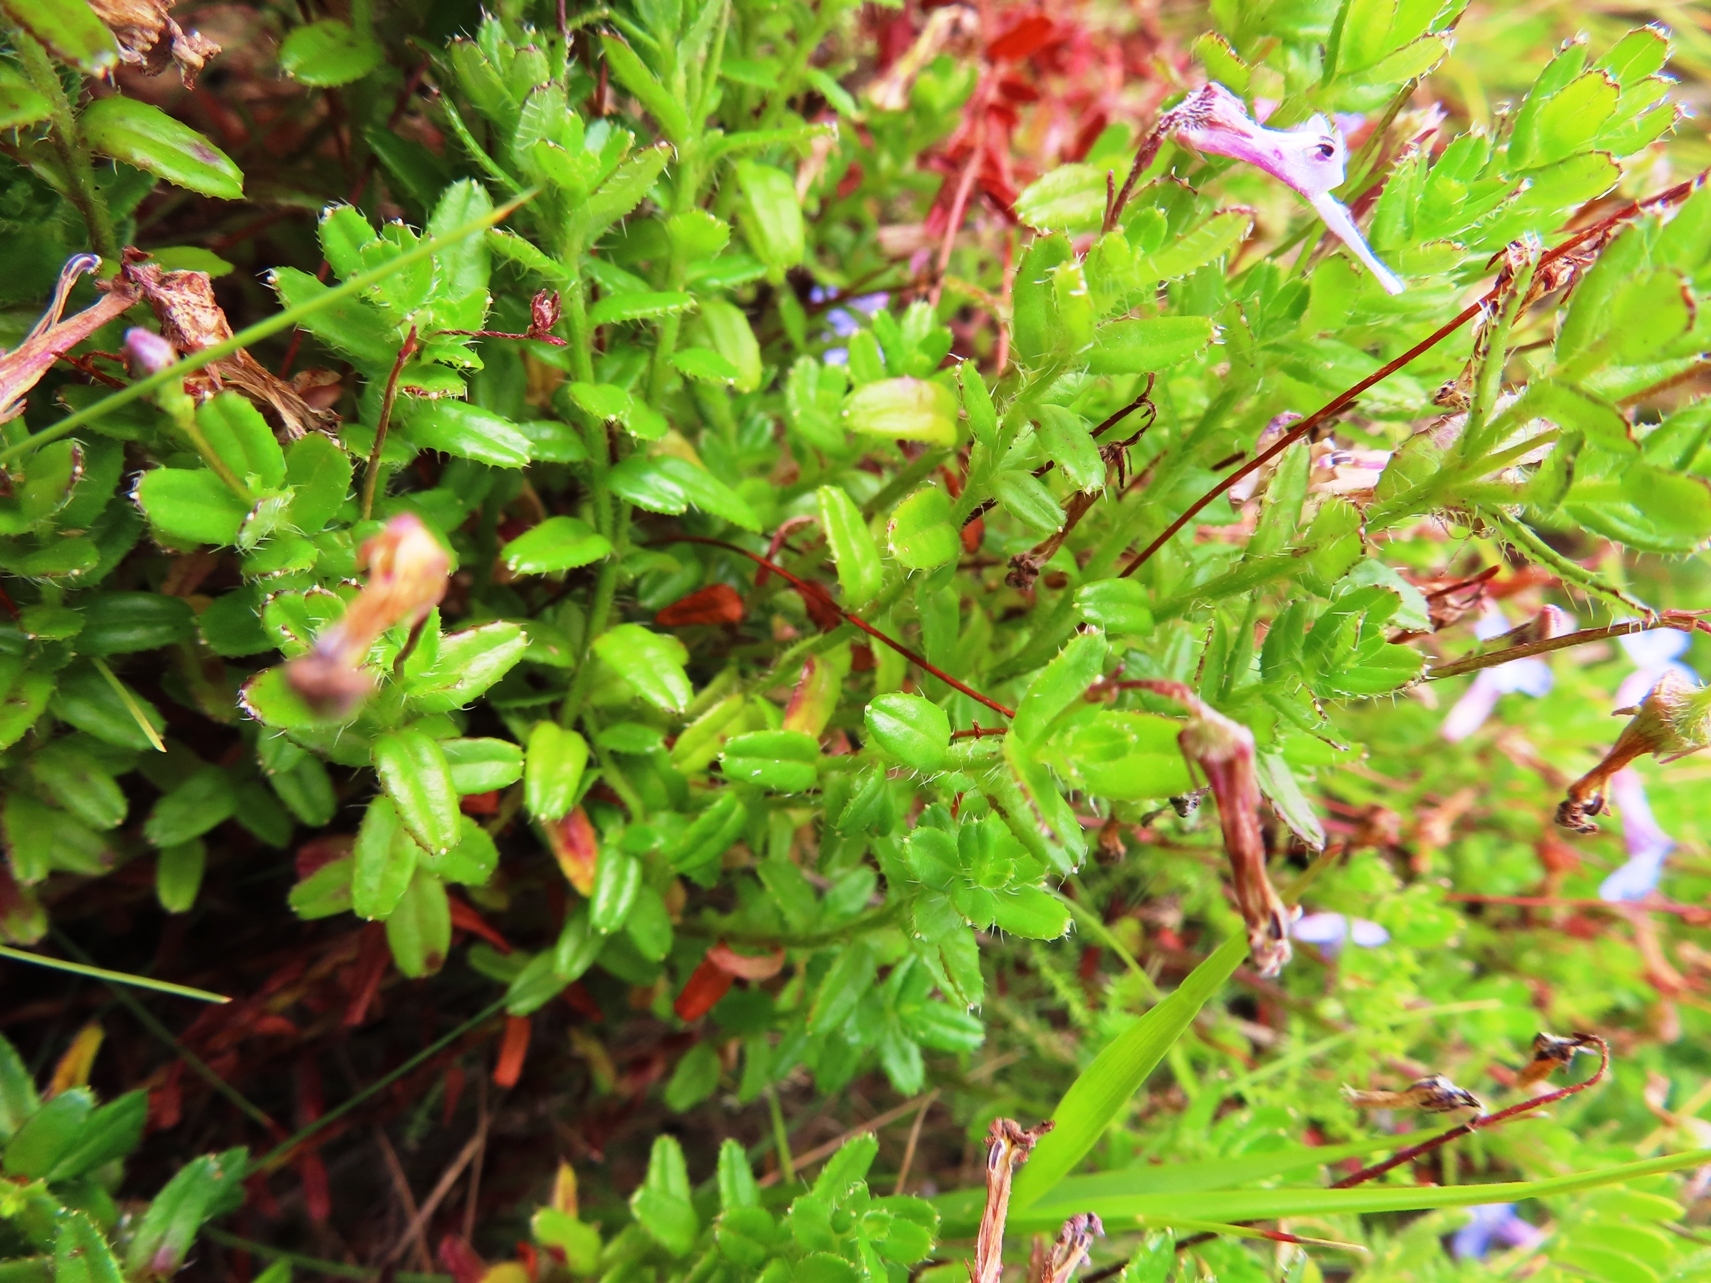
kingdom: Plantae
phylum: Tracheophyta
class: Magnoliopsida
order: Asterales
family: Campanulaceae
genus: Lobelia
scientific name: Lobelia neglecta
